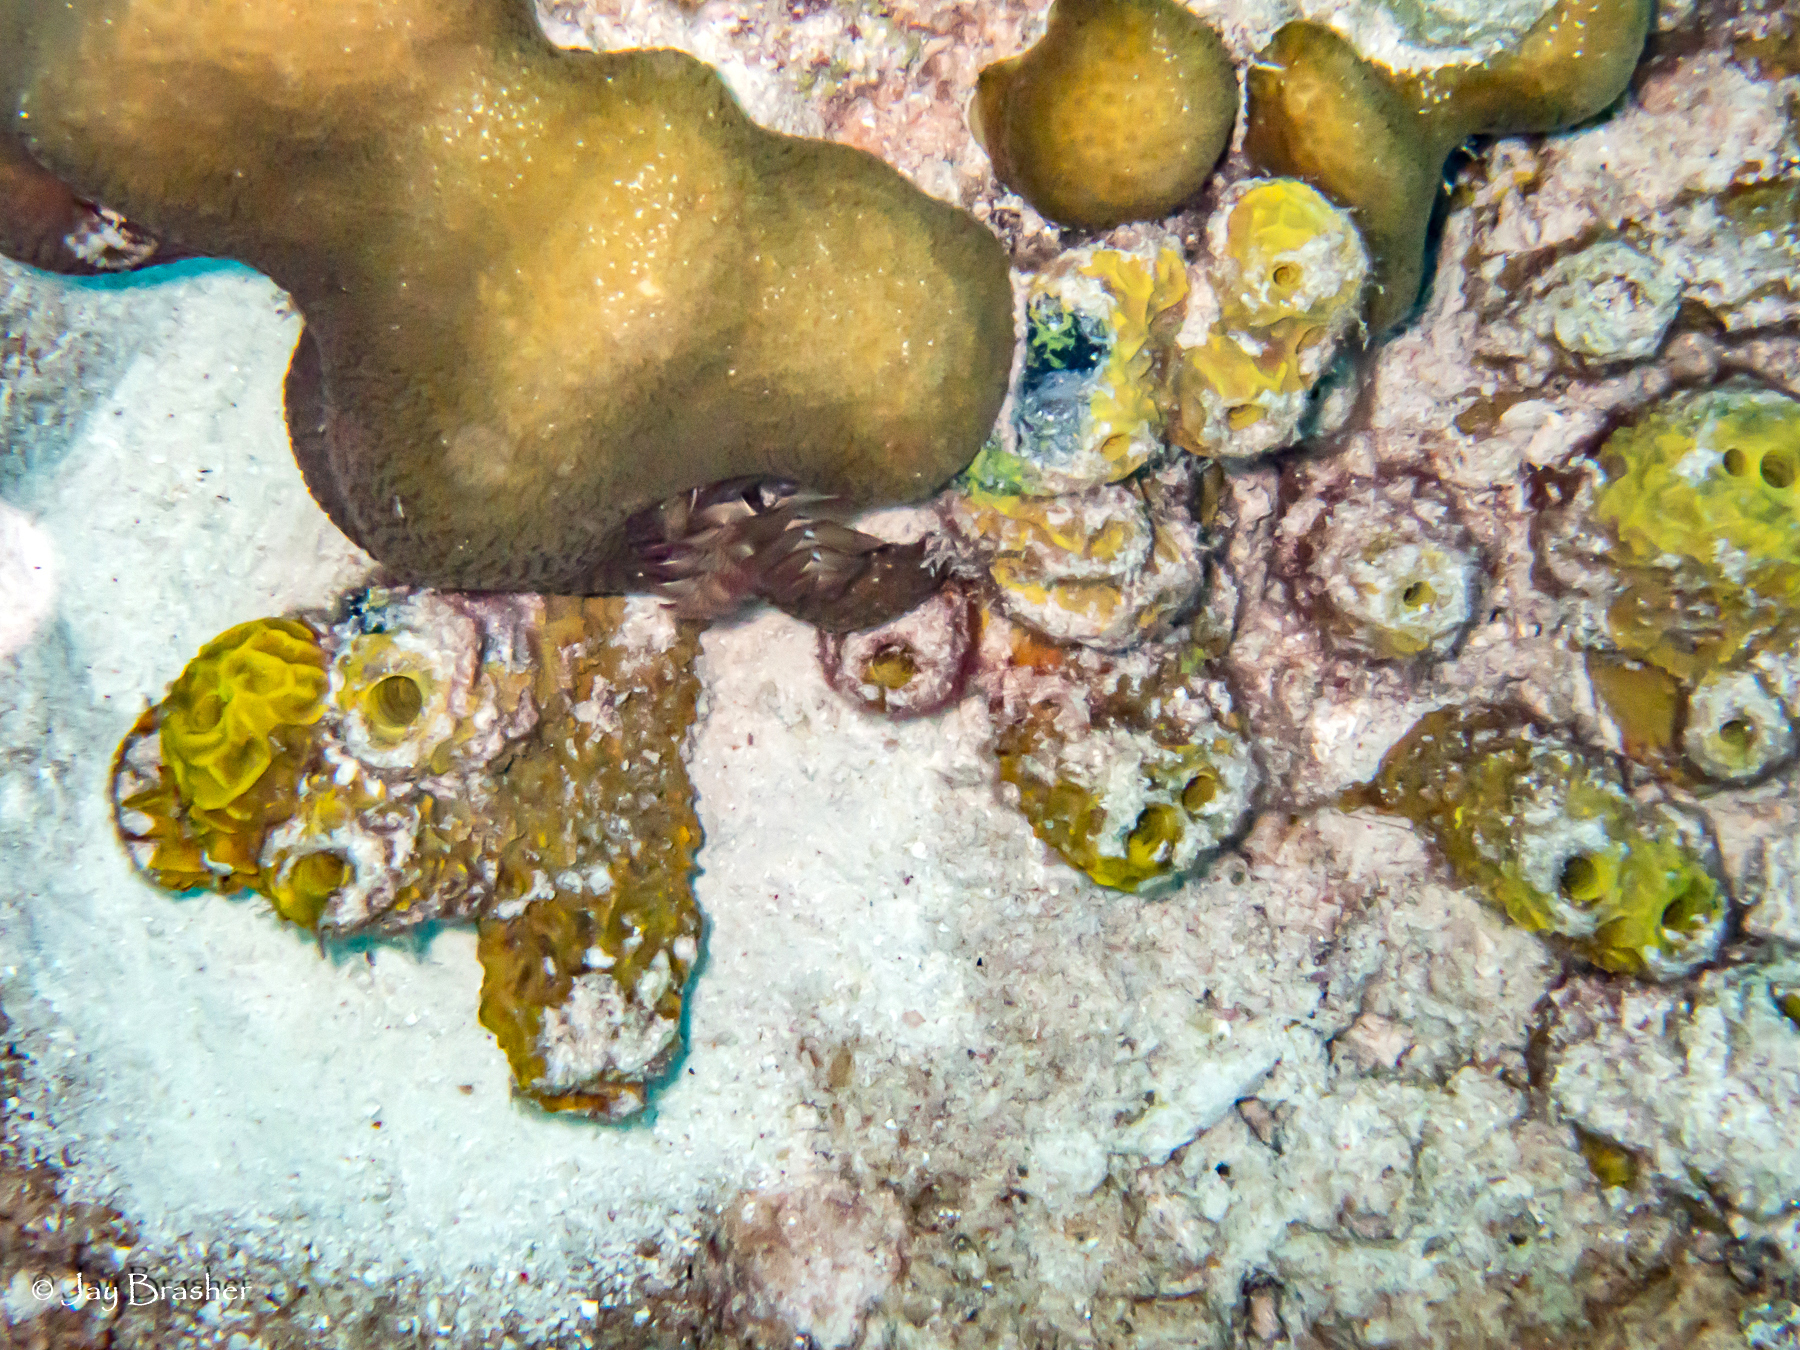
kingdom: Animalia
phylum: Porifera
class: Demospongiae
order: Verongiida
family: Aplysinidae
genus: Verongula
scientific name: Verongula rigida
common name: Pitted sponge
